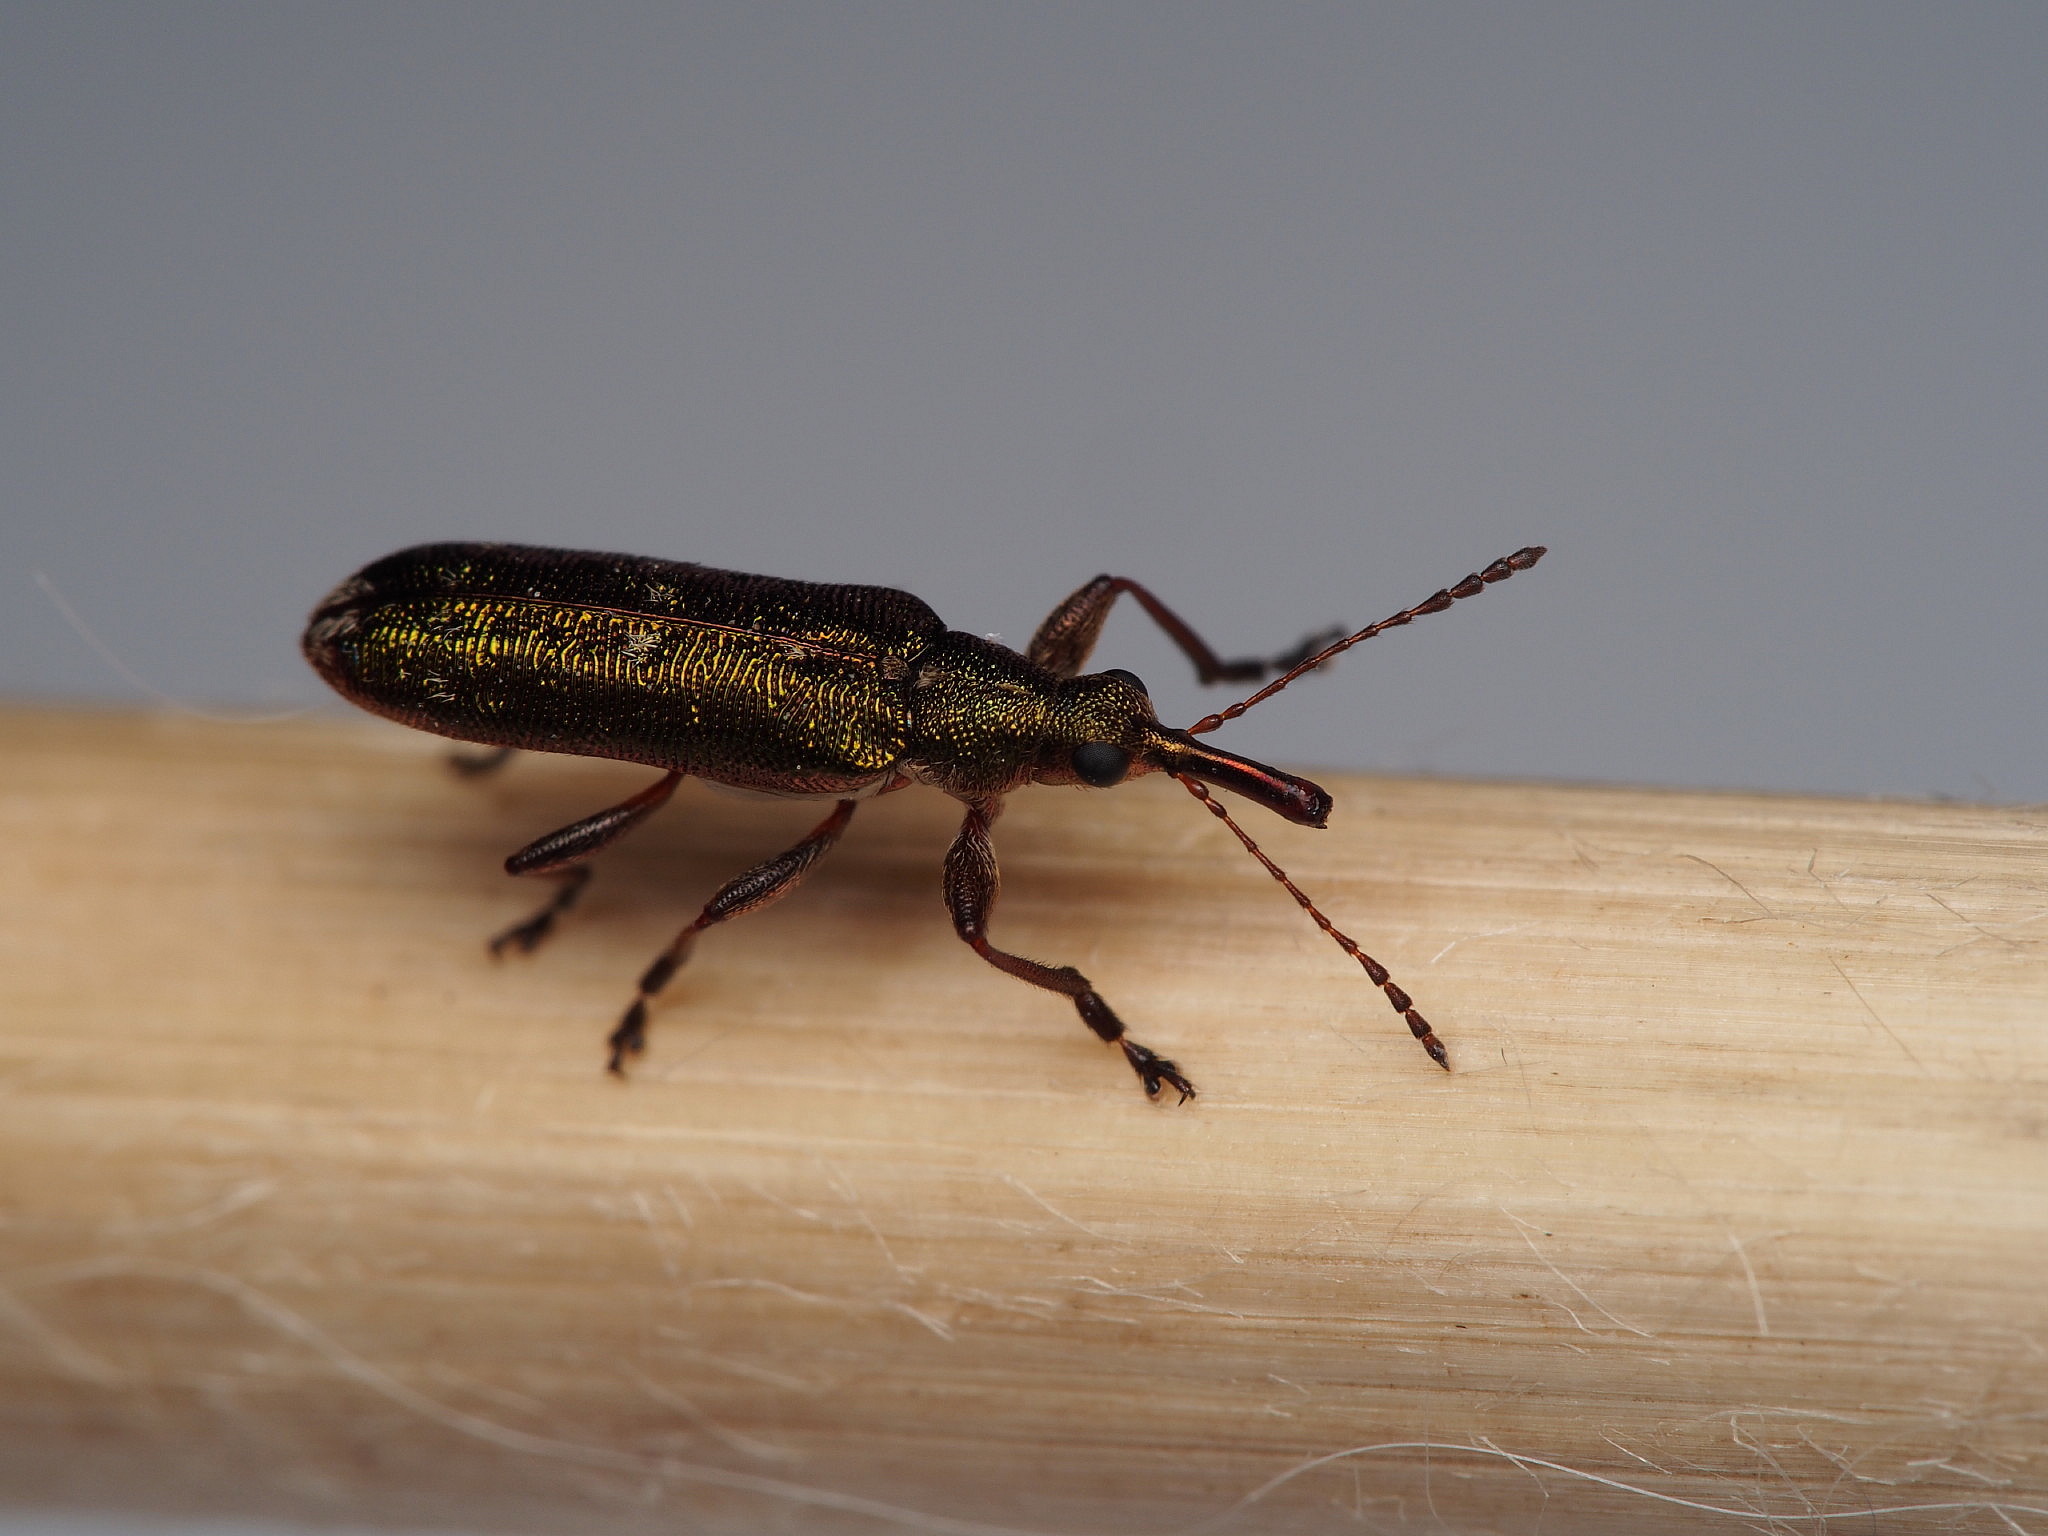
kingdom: Animalia
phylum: Arthropoda
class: Insecta
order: Coleoptera
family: Belidae
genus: Rhicnobelus
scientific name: Rhicnobelus
